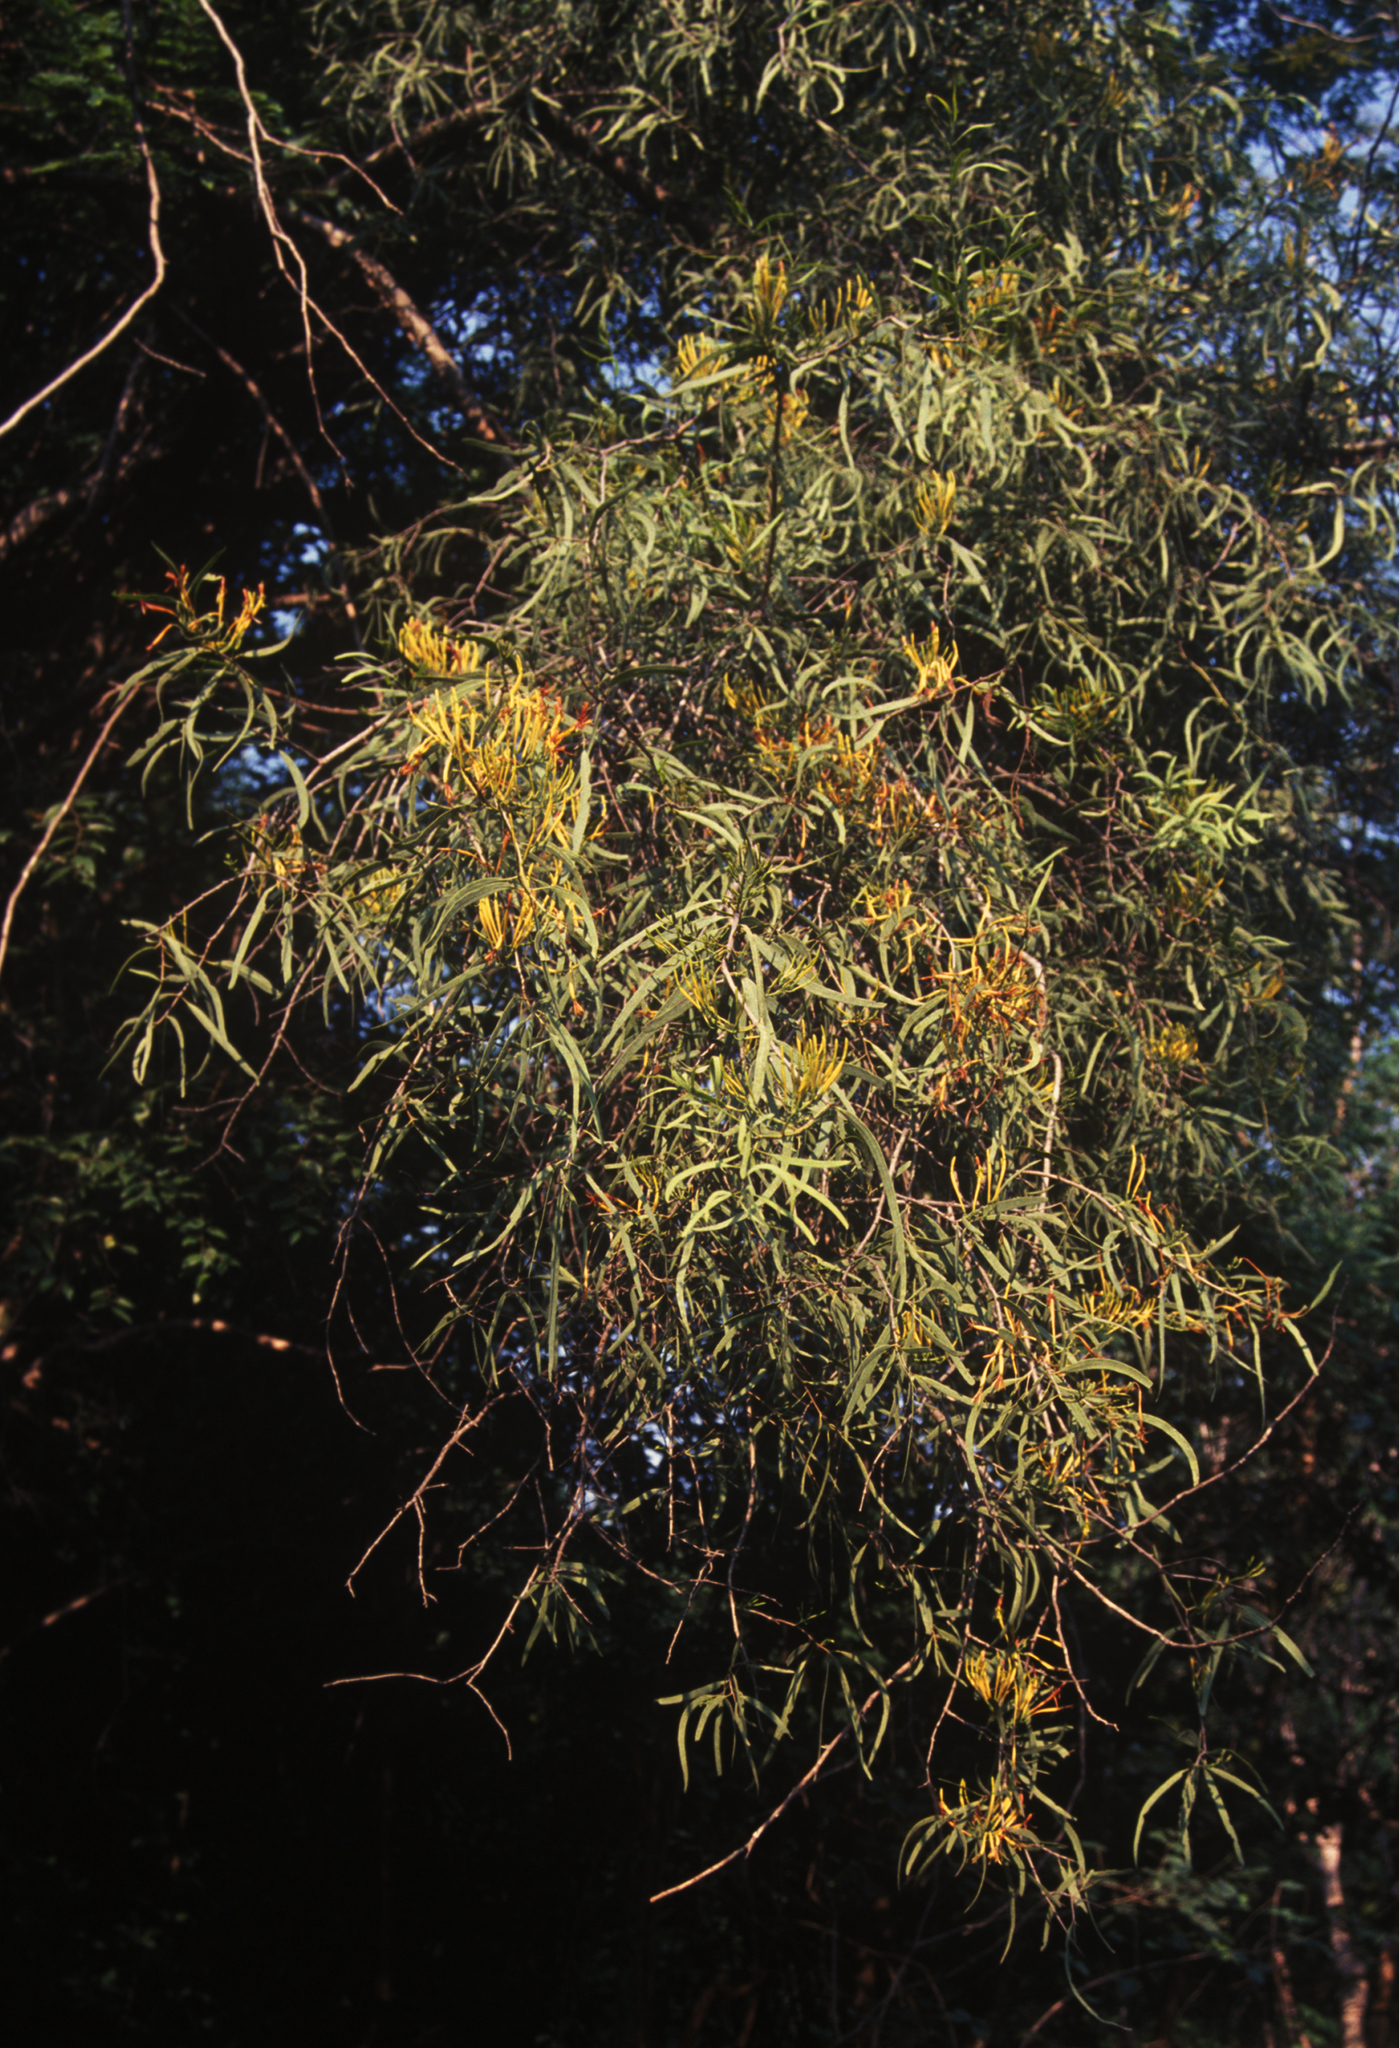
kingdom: Plantae
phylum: Tracheophyta
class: Magnoliopsida
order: Santalales
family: Loranthaceae
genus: Dendrophthoe
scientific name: Dendrophthoe gamblei
